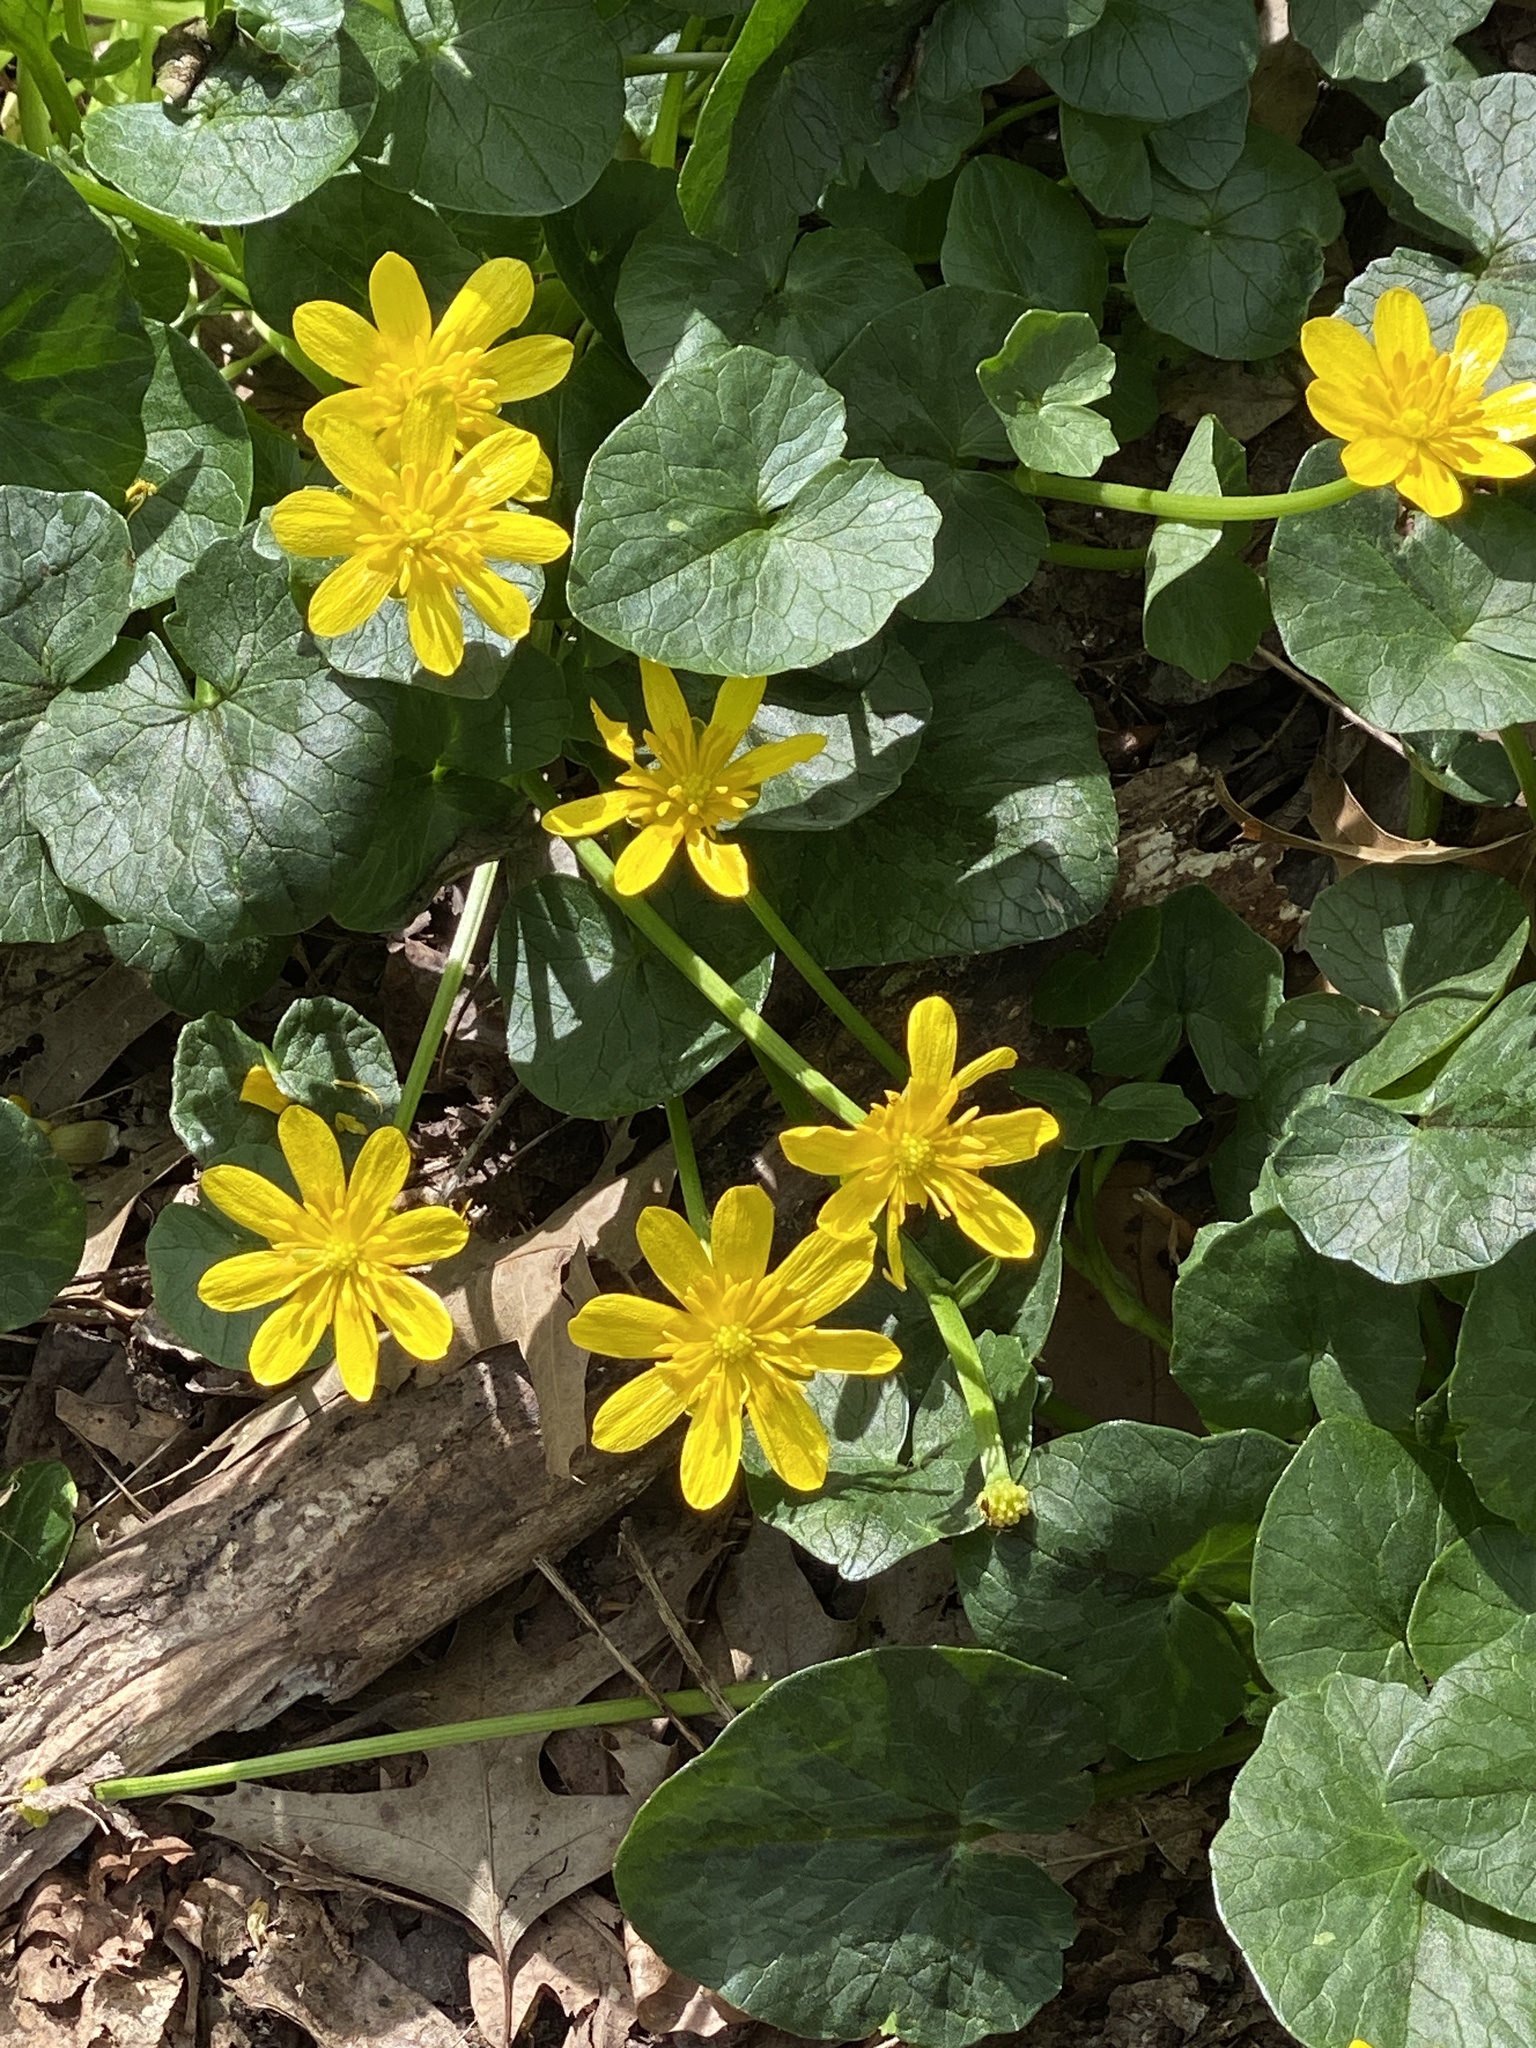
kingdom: Plantae
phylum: Tracheophyta
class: Magnoliopsida
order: Ranunculales
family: Ranunculaceae
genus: Ficaria
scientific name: Ficaria verna
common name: Lesser celandine
